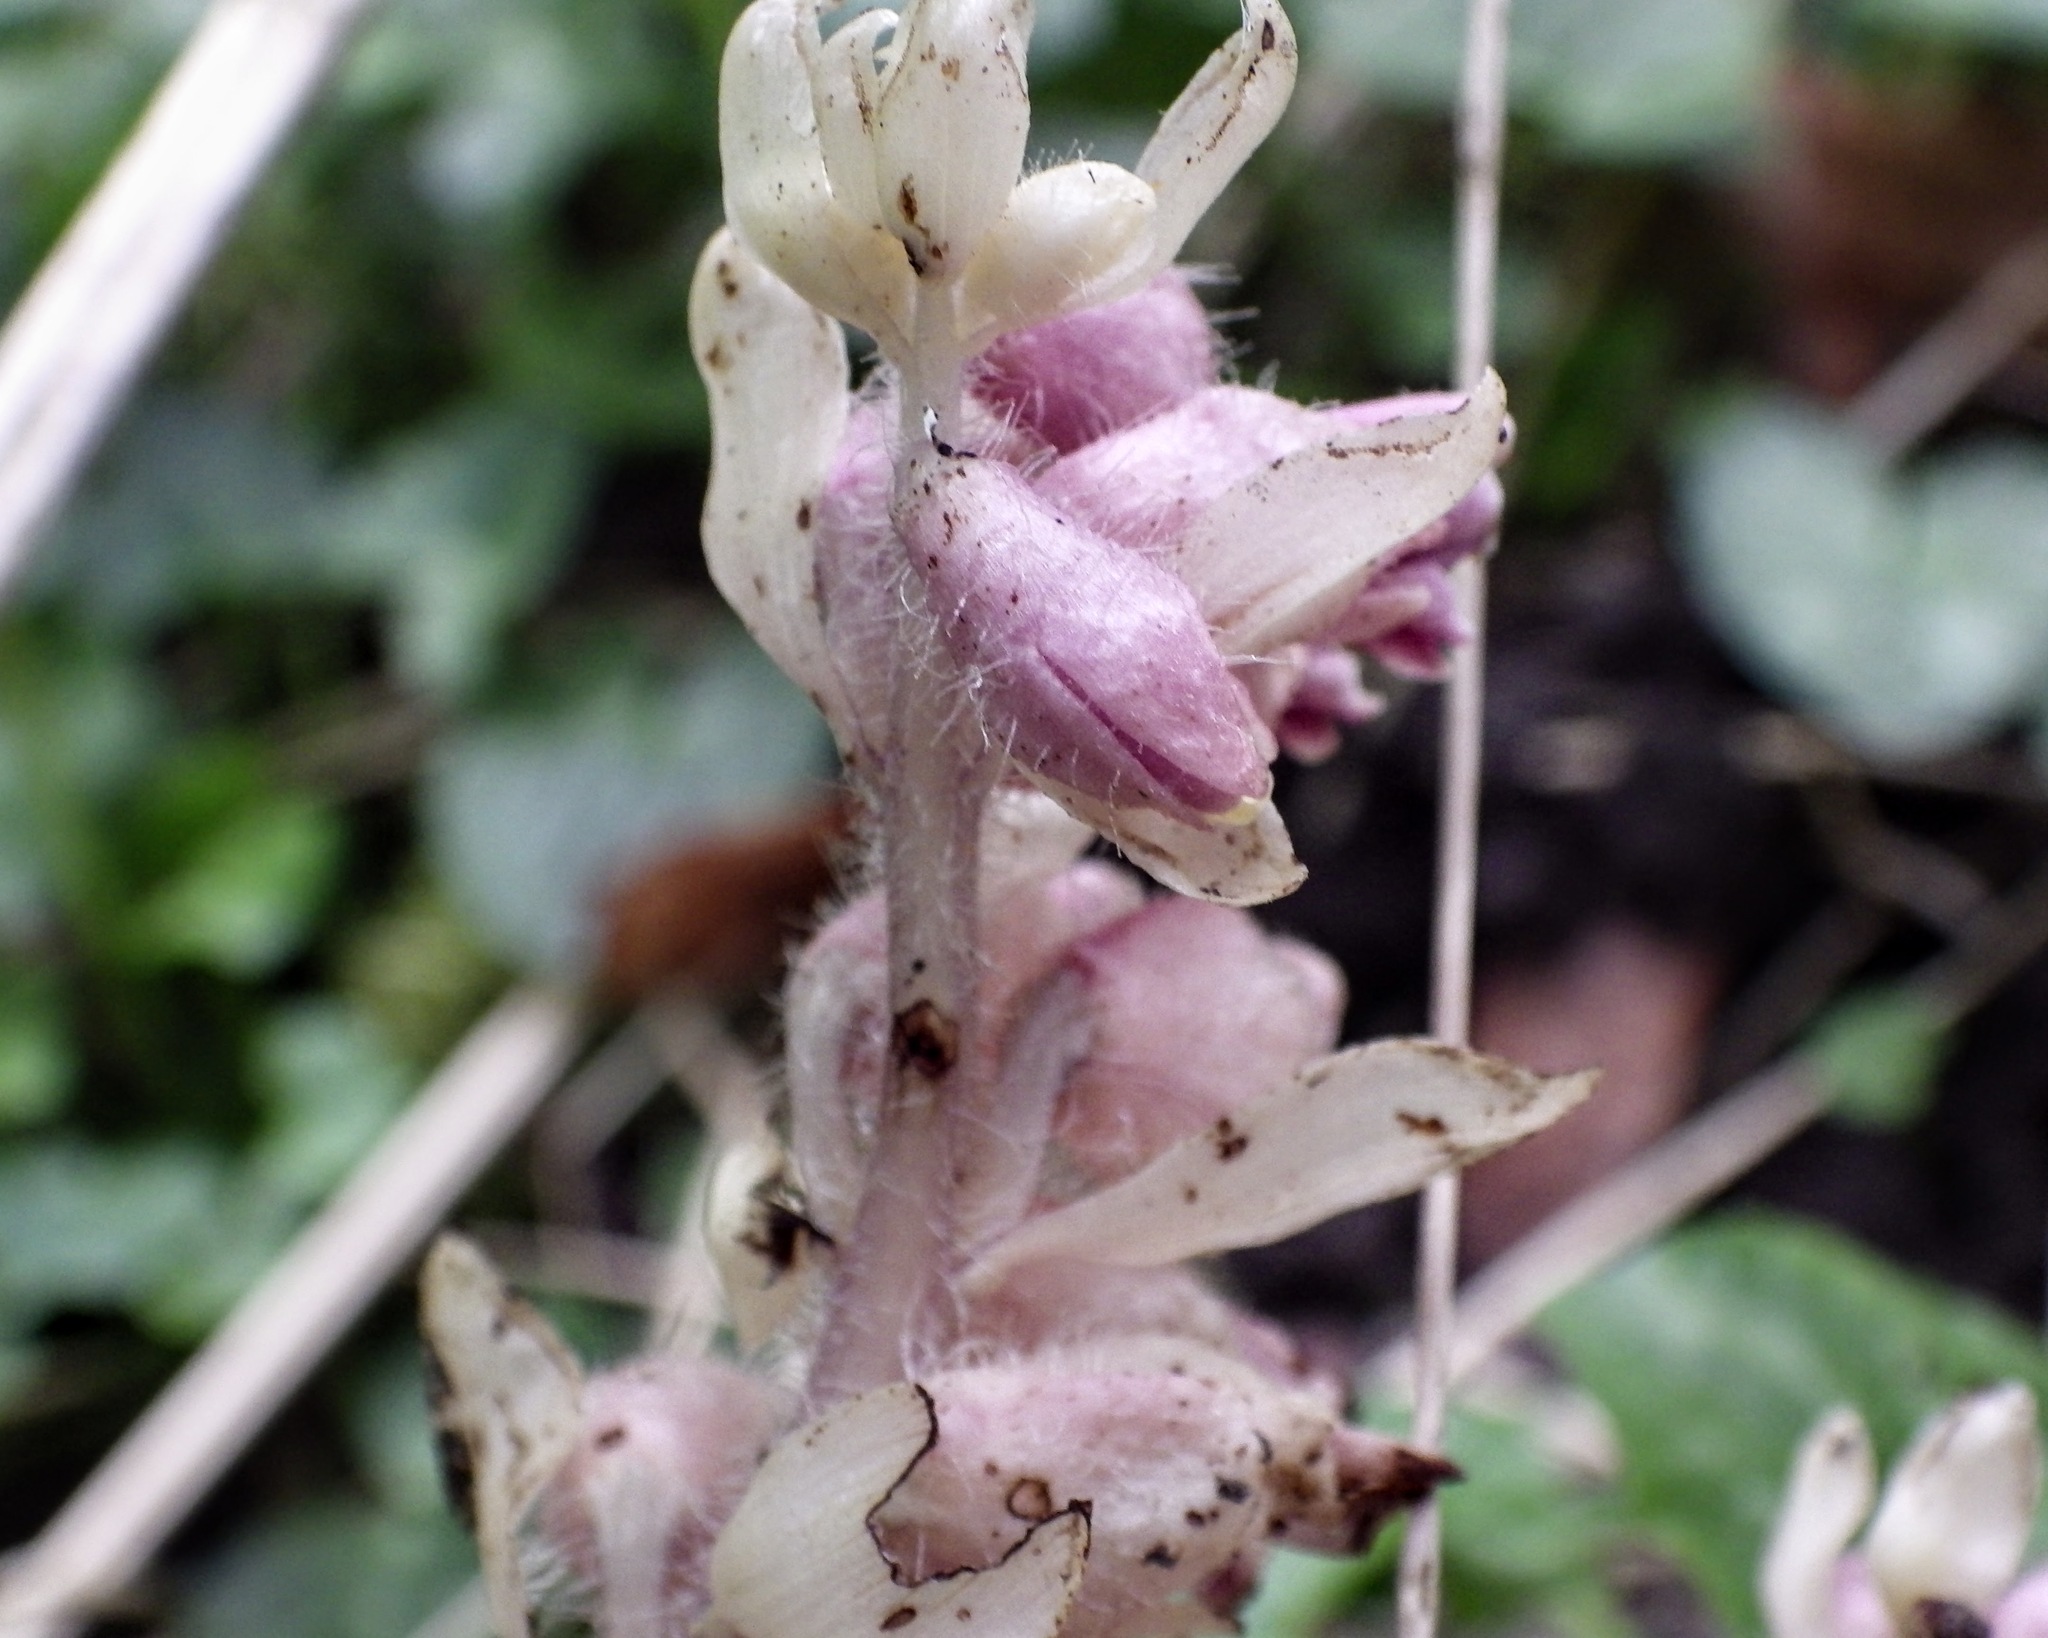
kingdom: Plantae
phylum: Tracheophyta
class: Magnoliopsida
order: Lamiales
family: Orobanchaceae
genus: Lathraea
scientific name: Lathraea squamaria
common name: Toothwort
